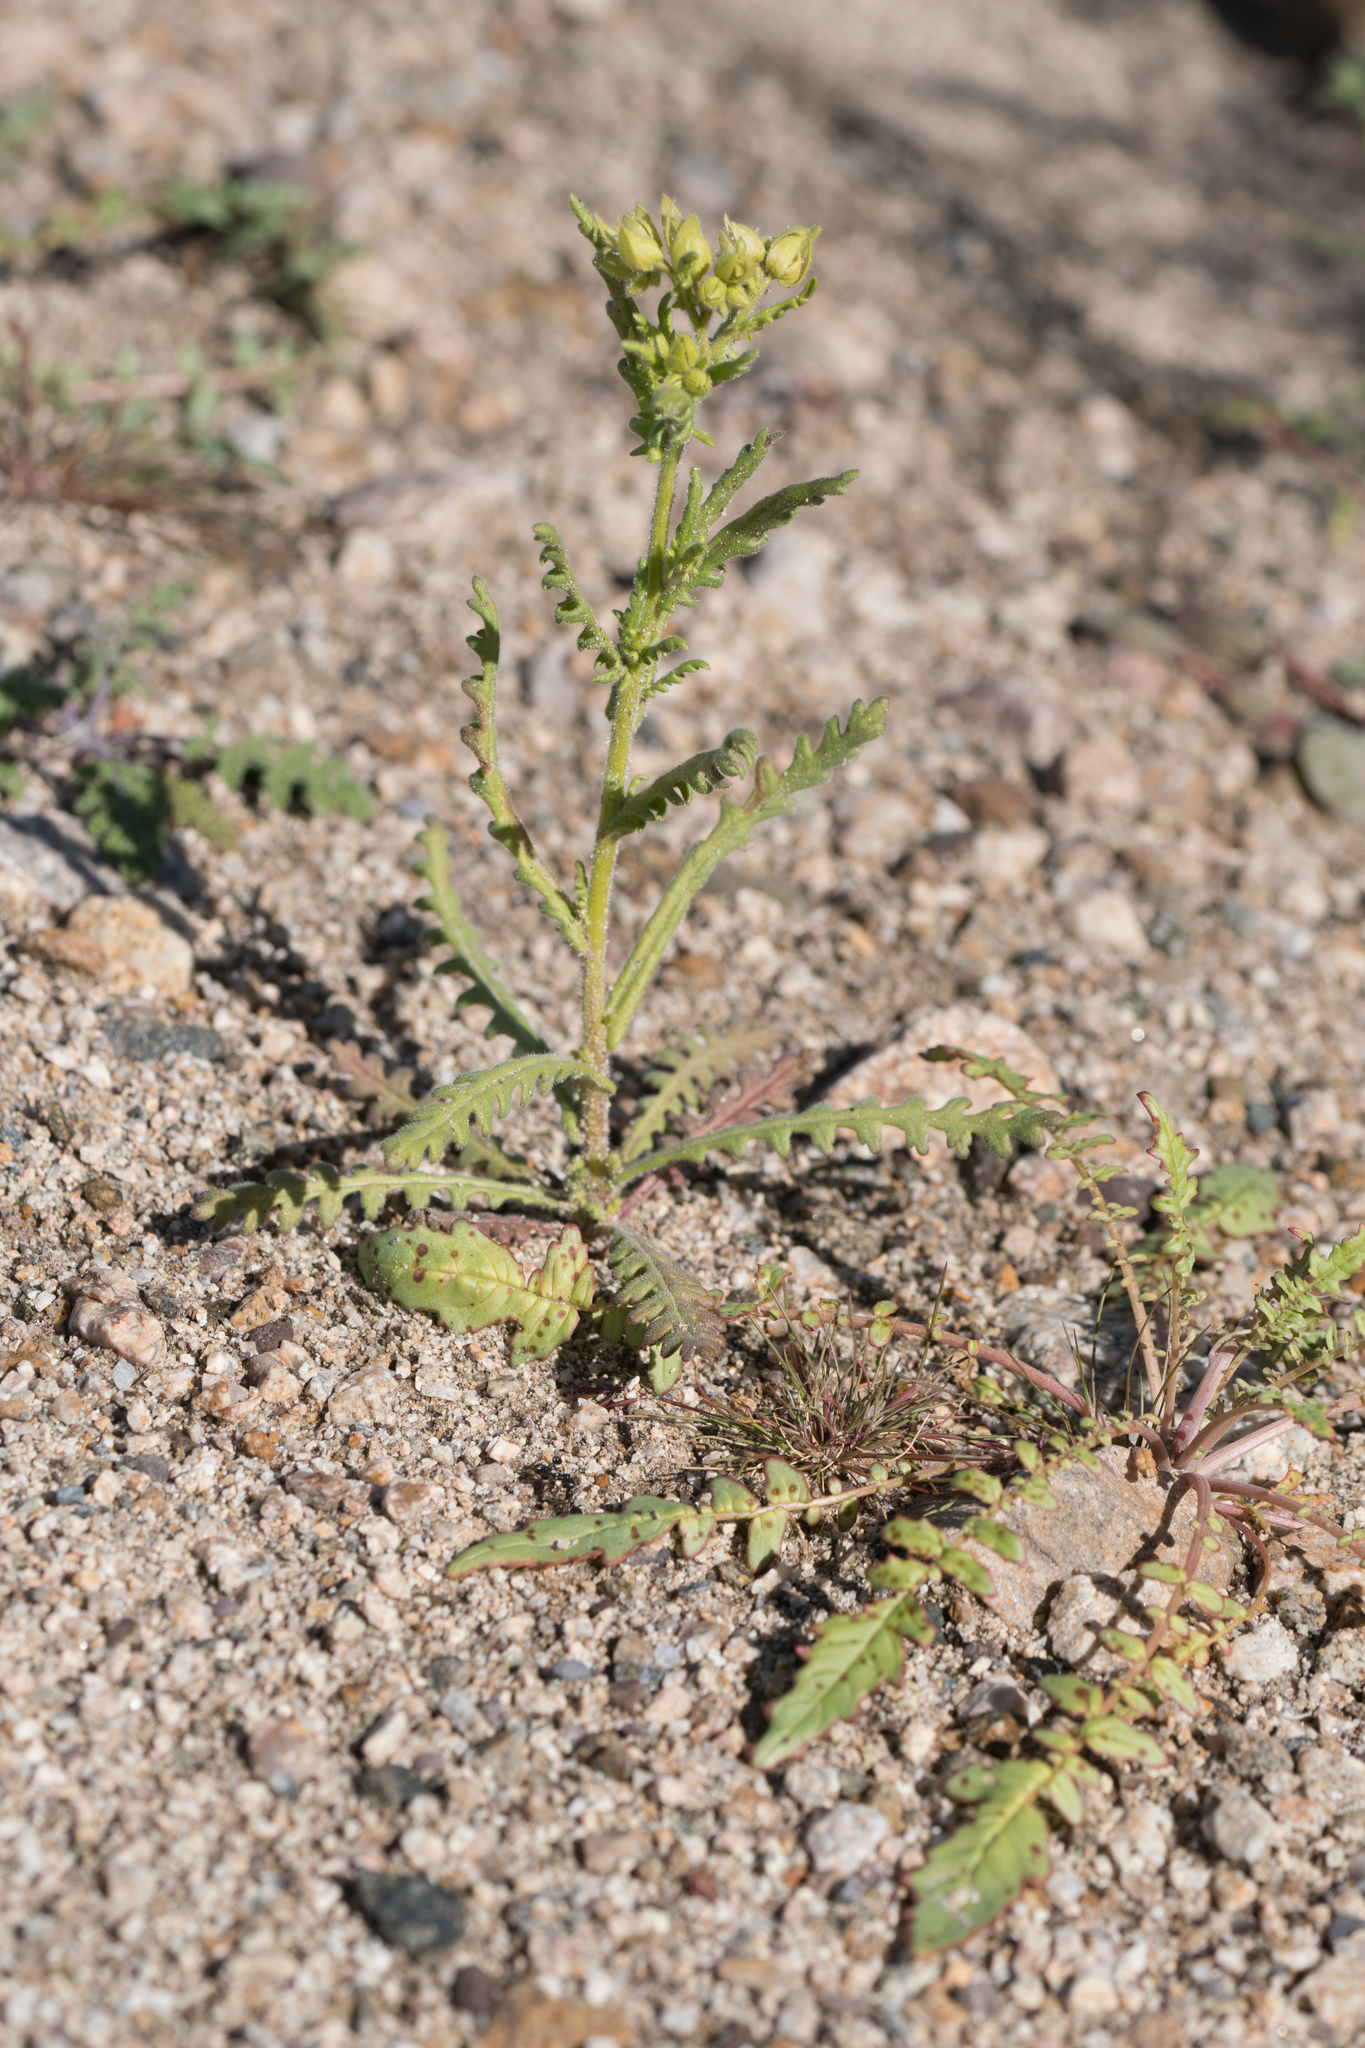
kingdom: Plantae
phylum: Tracheophyta
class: Magnoliopsida
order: Boraginales
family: Hydrophyllaceae
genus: Emmenanthe
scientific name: Emmenanthe penduliflora
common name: Whispering-bells
